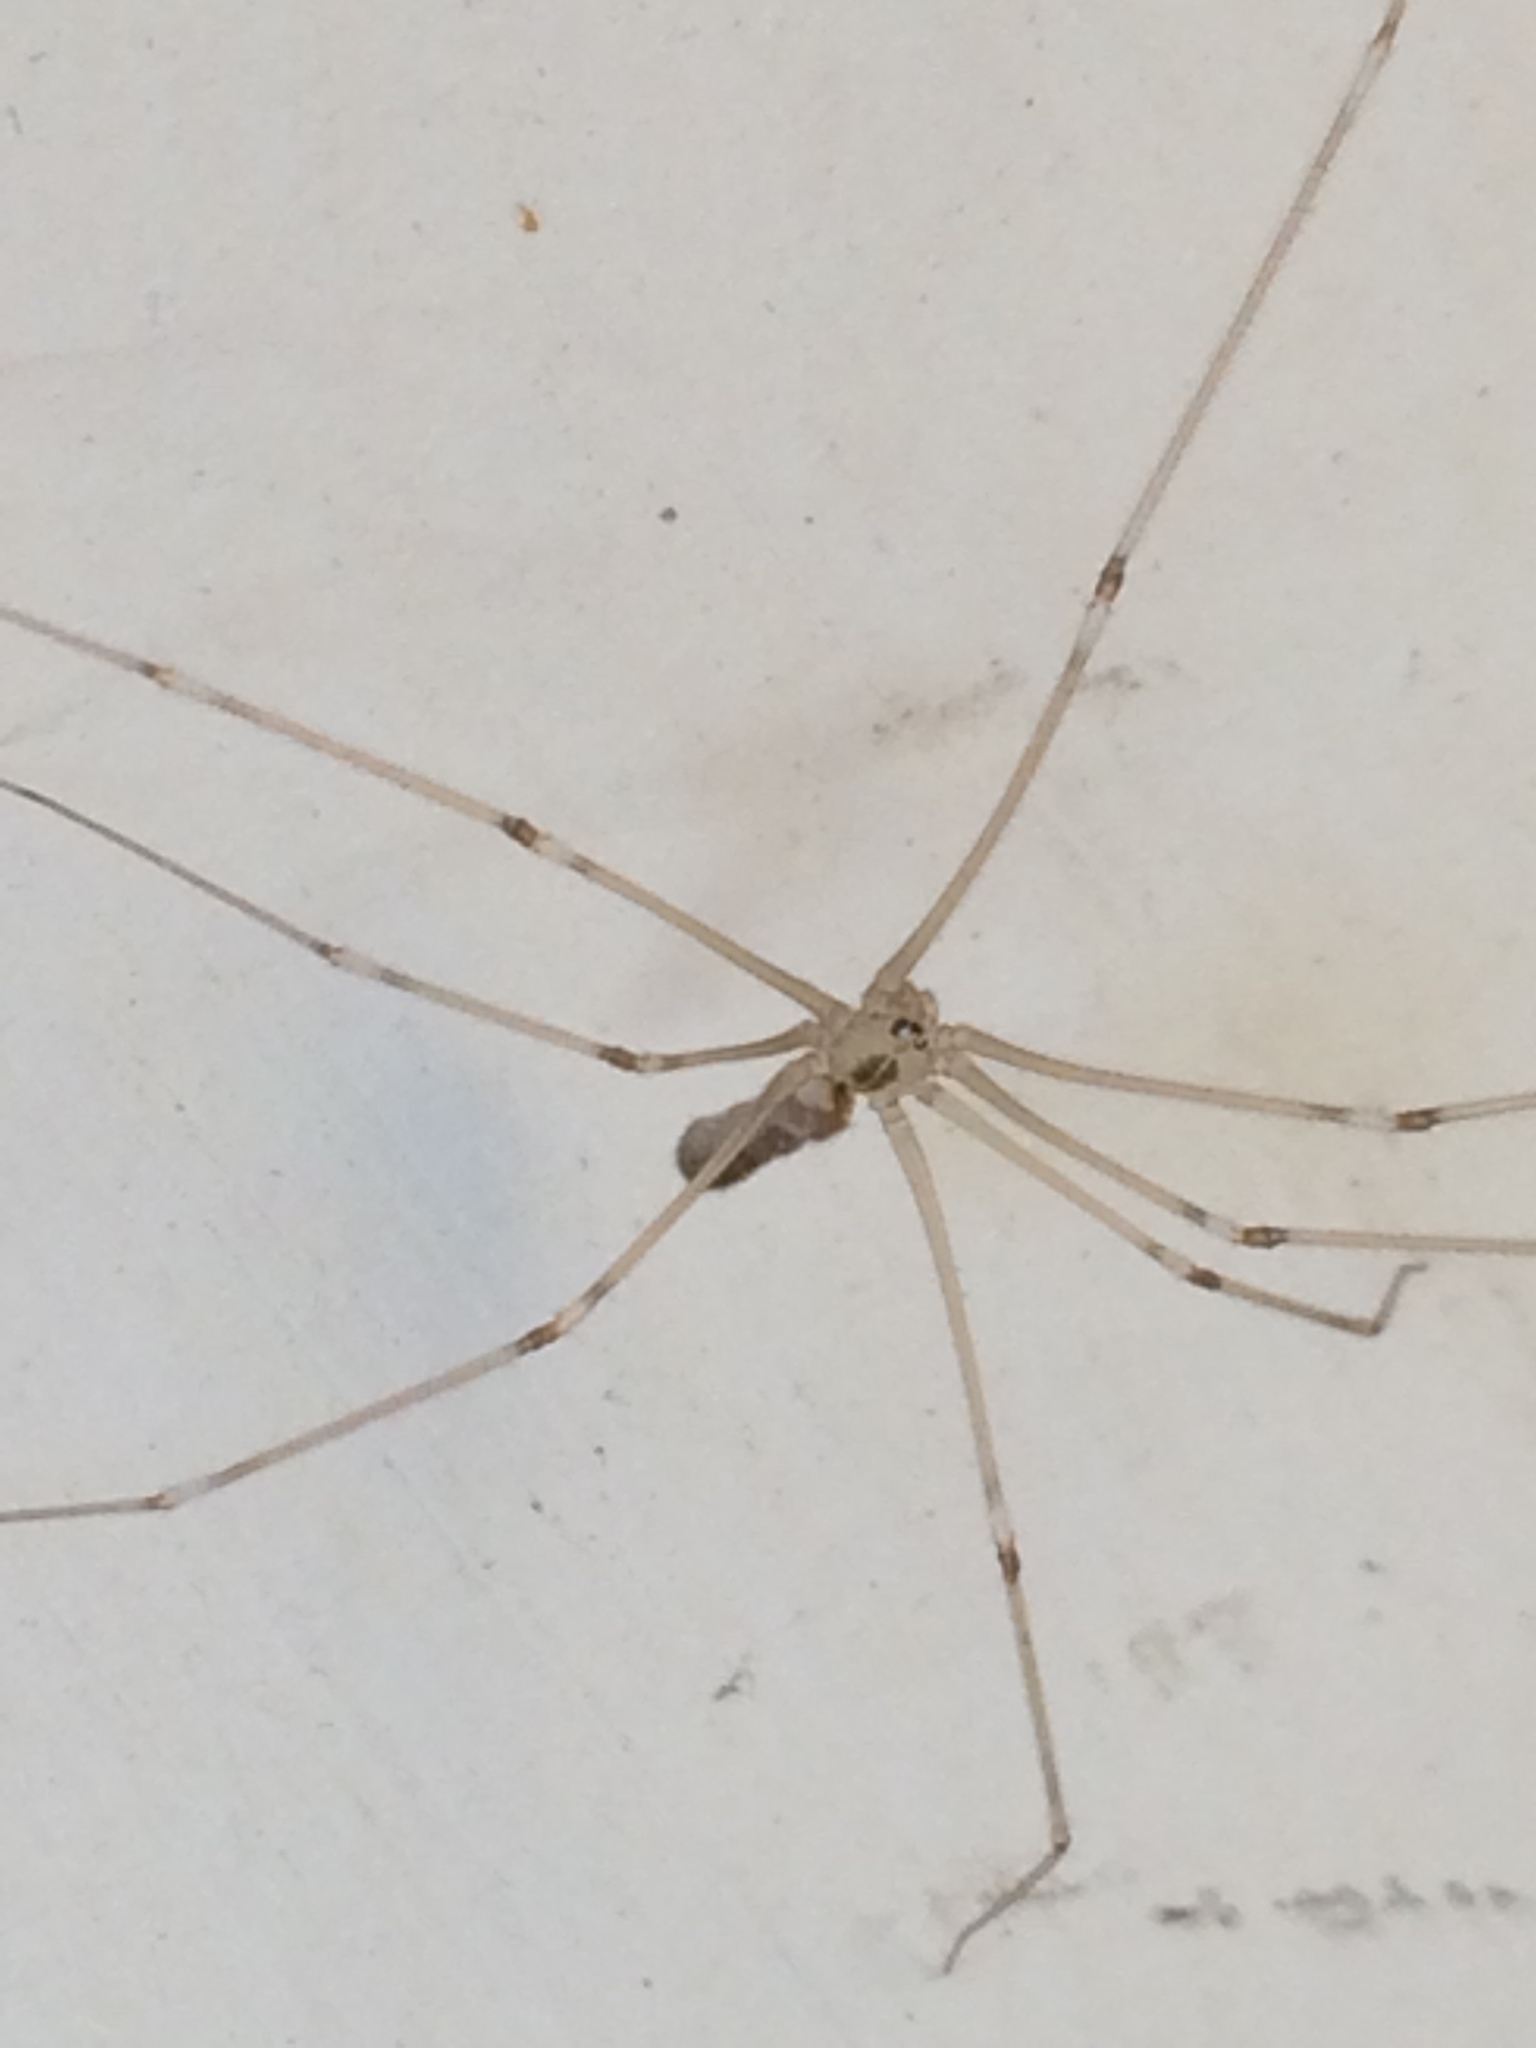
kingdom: Animalia
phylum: Arthropoda
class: Arachnida
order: Araneae
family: Pholcidae
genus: Pholcus
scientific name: Pholcus phalangioides
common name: Longbodied cellar spider
